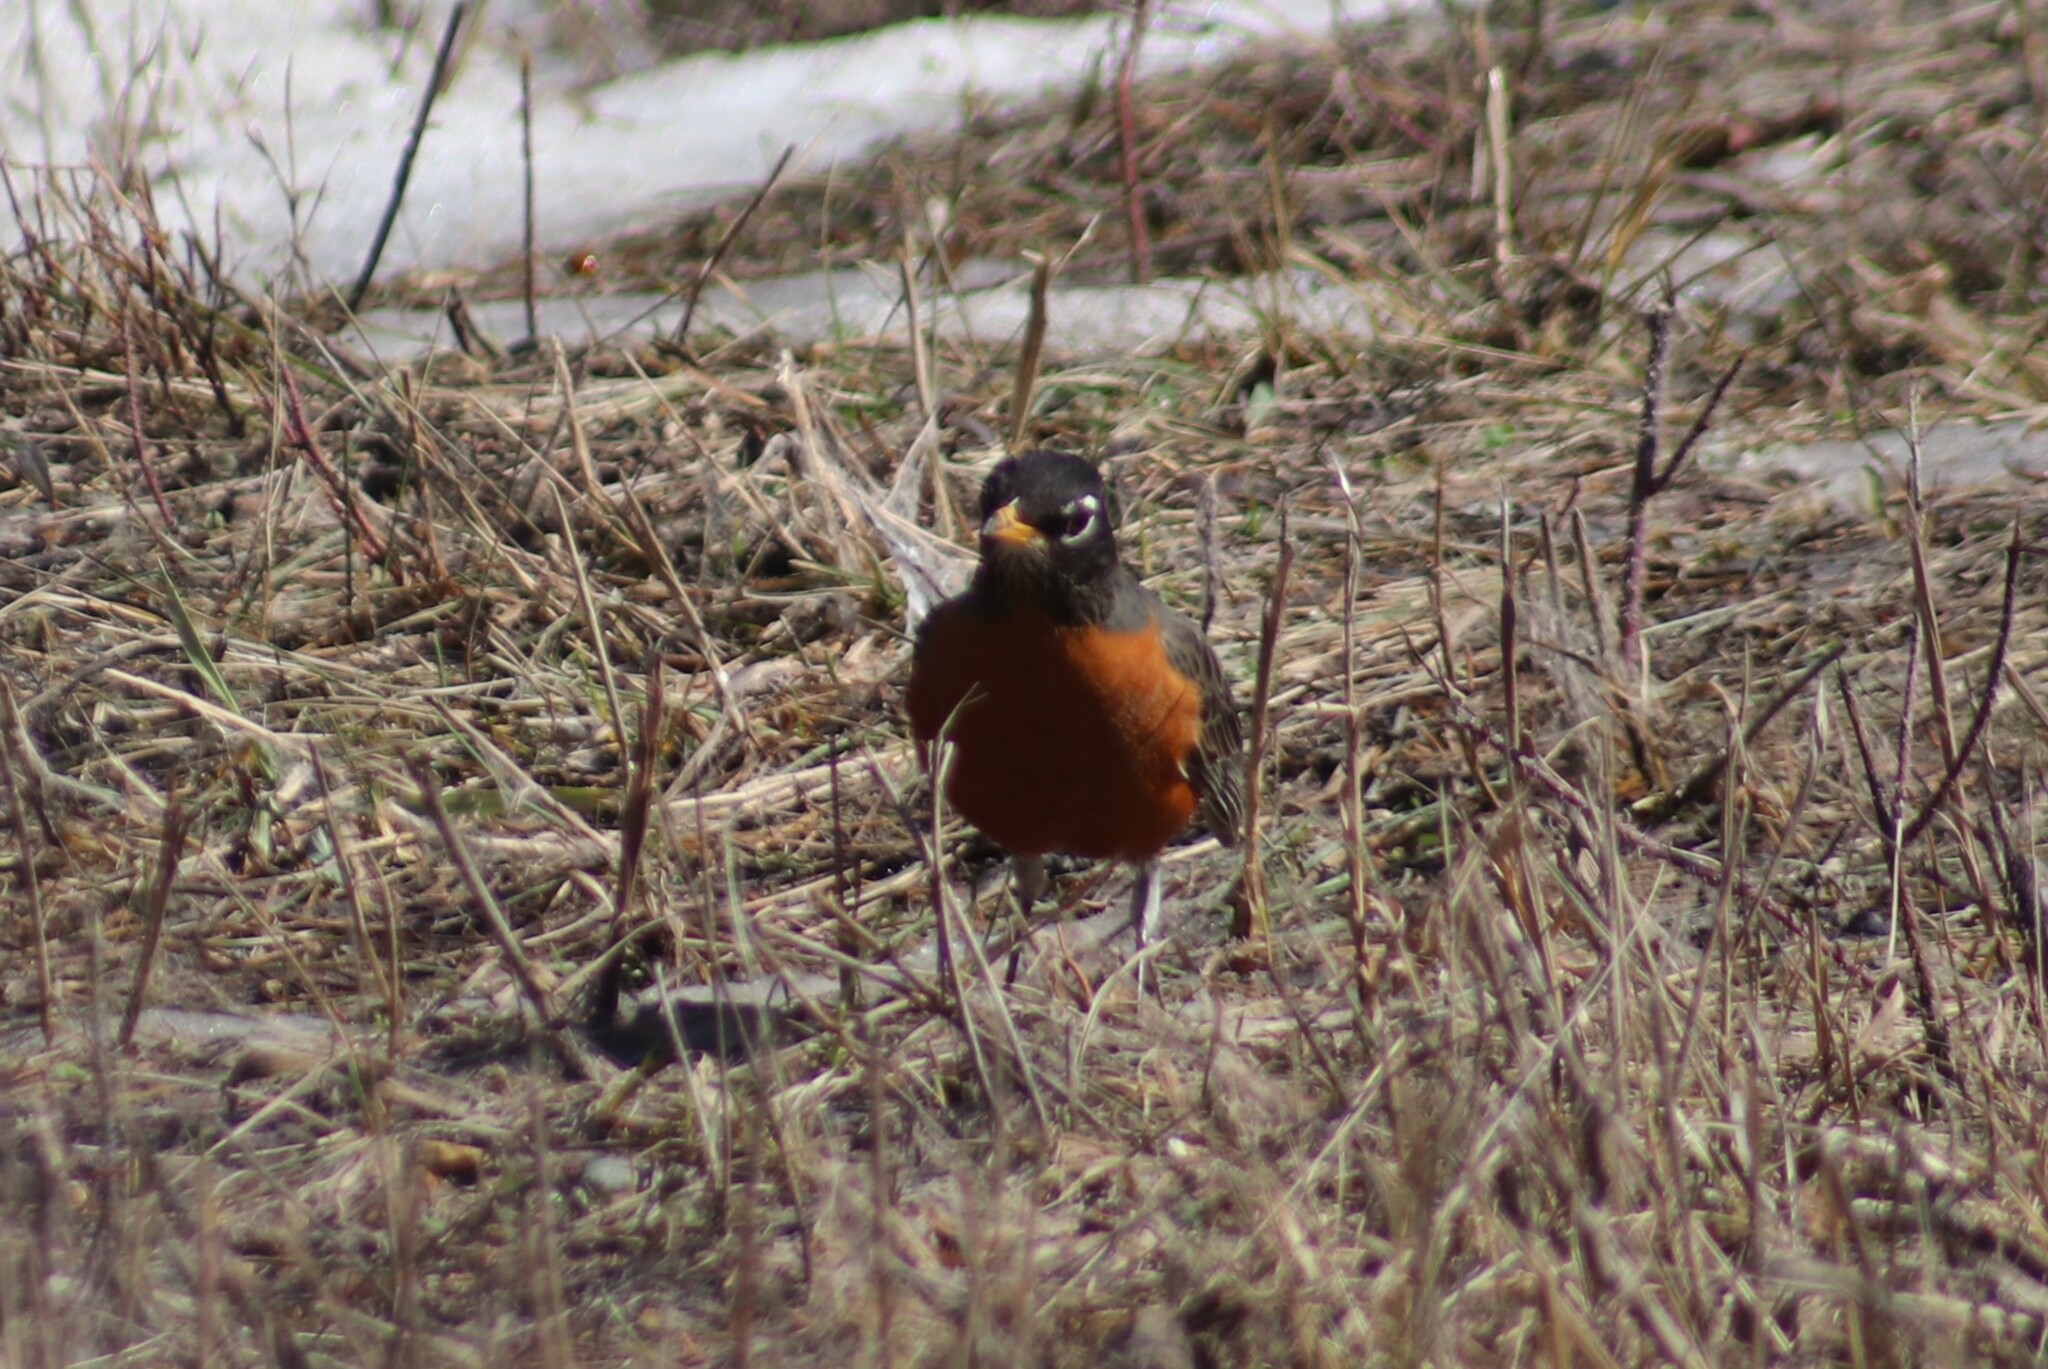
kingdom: Animalia
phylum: Chordata
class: Aves
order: Passeriformes
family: Turdidae
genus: Turdus
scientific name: Turdus migratorius
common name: American robin
